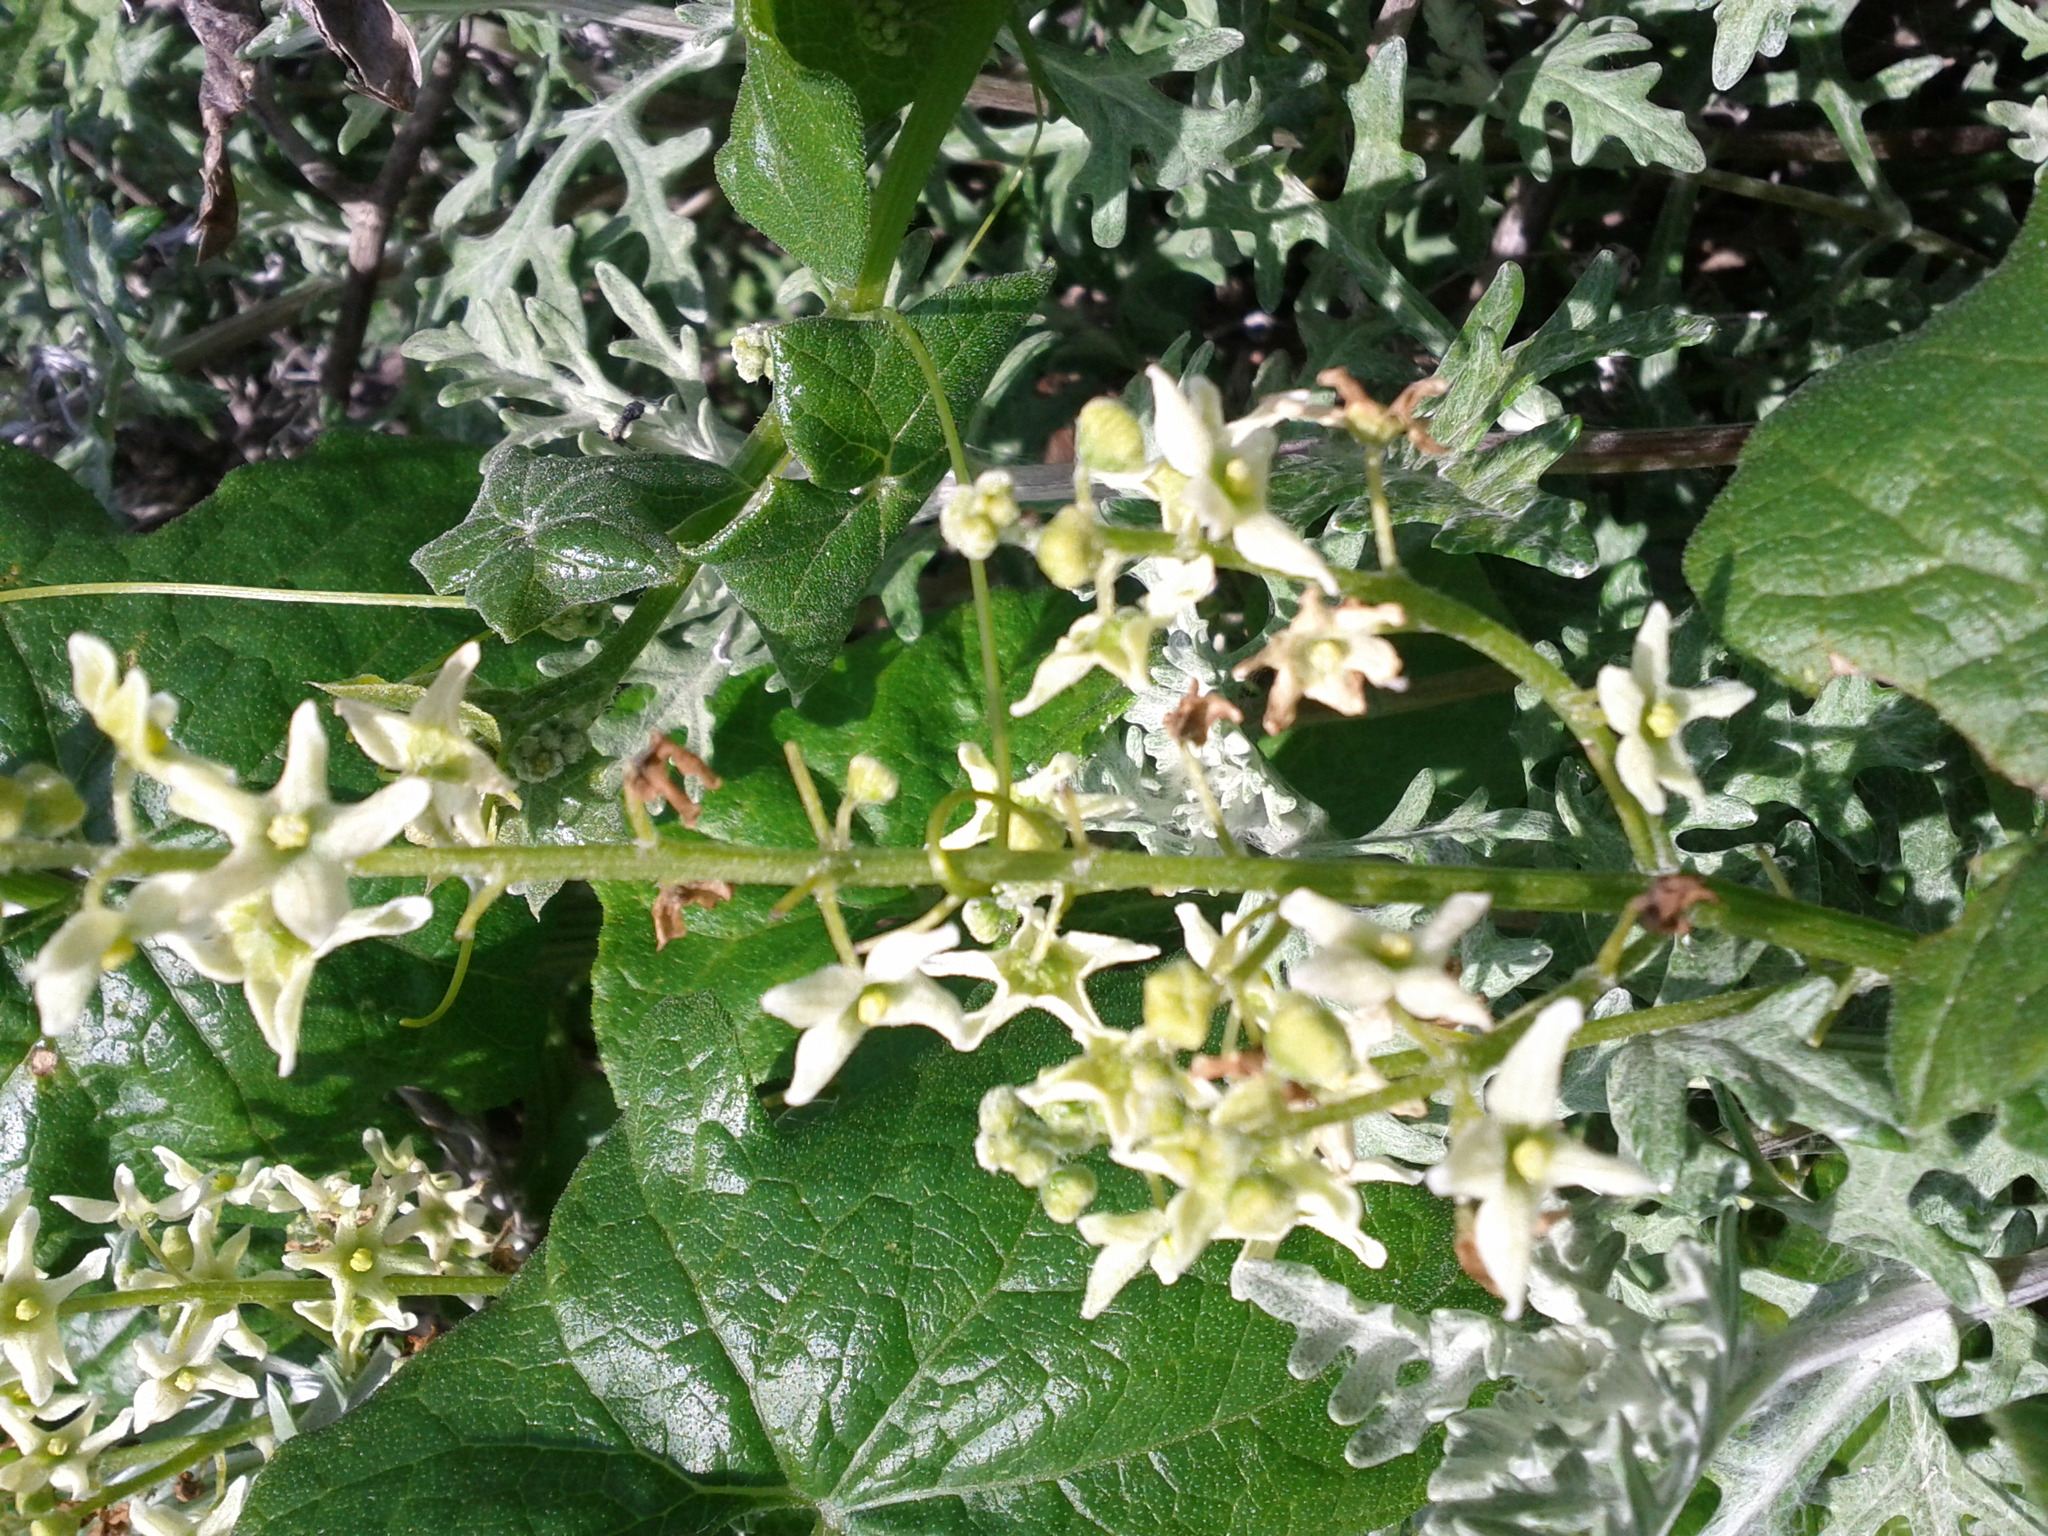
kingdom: Plantae
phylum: Tracheophyta
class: Magnoliopsida
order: Cucurbitales
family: Cucurbitaceae
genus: Marah
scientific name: Marah fabacea
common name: California manroot
